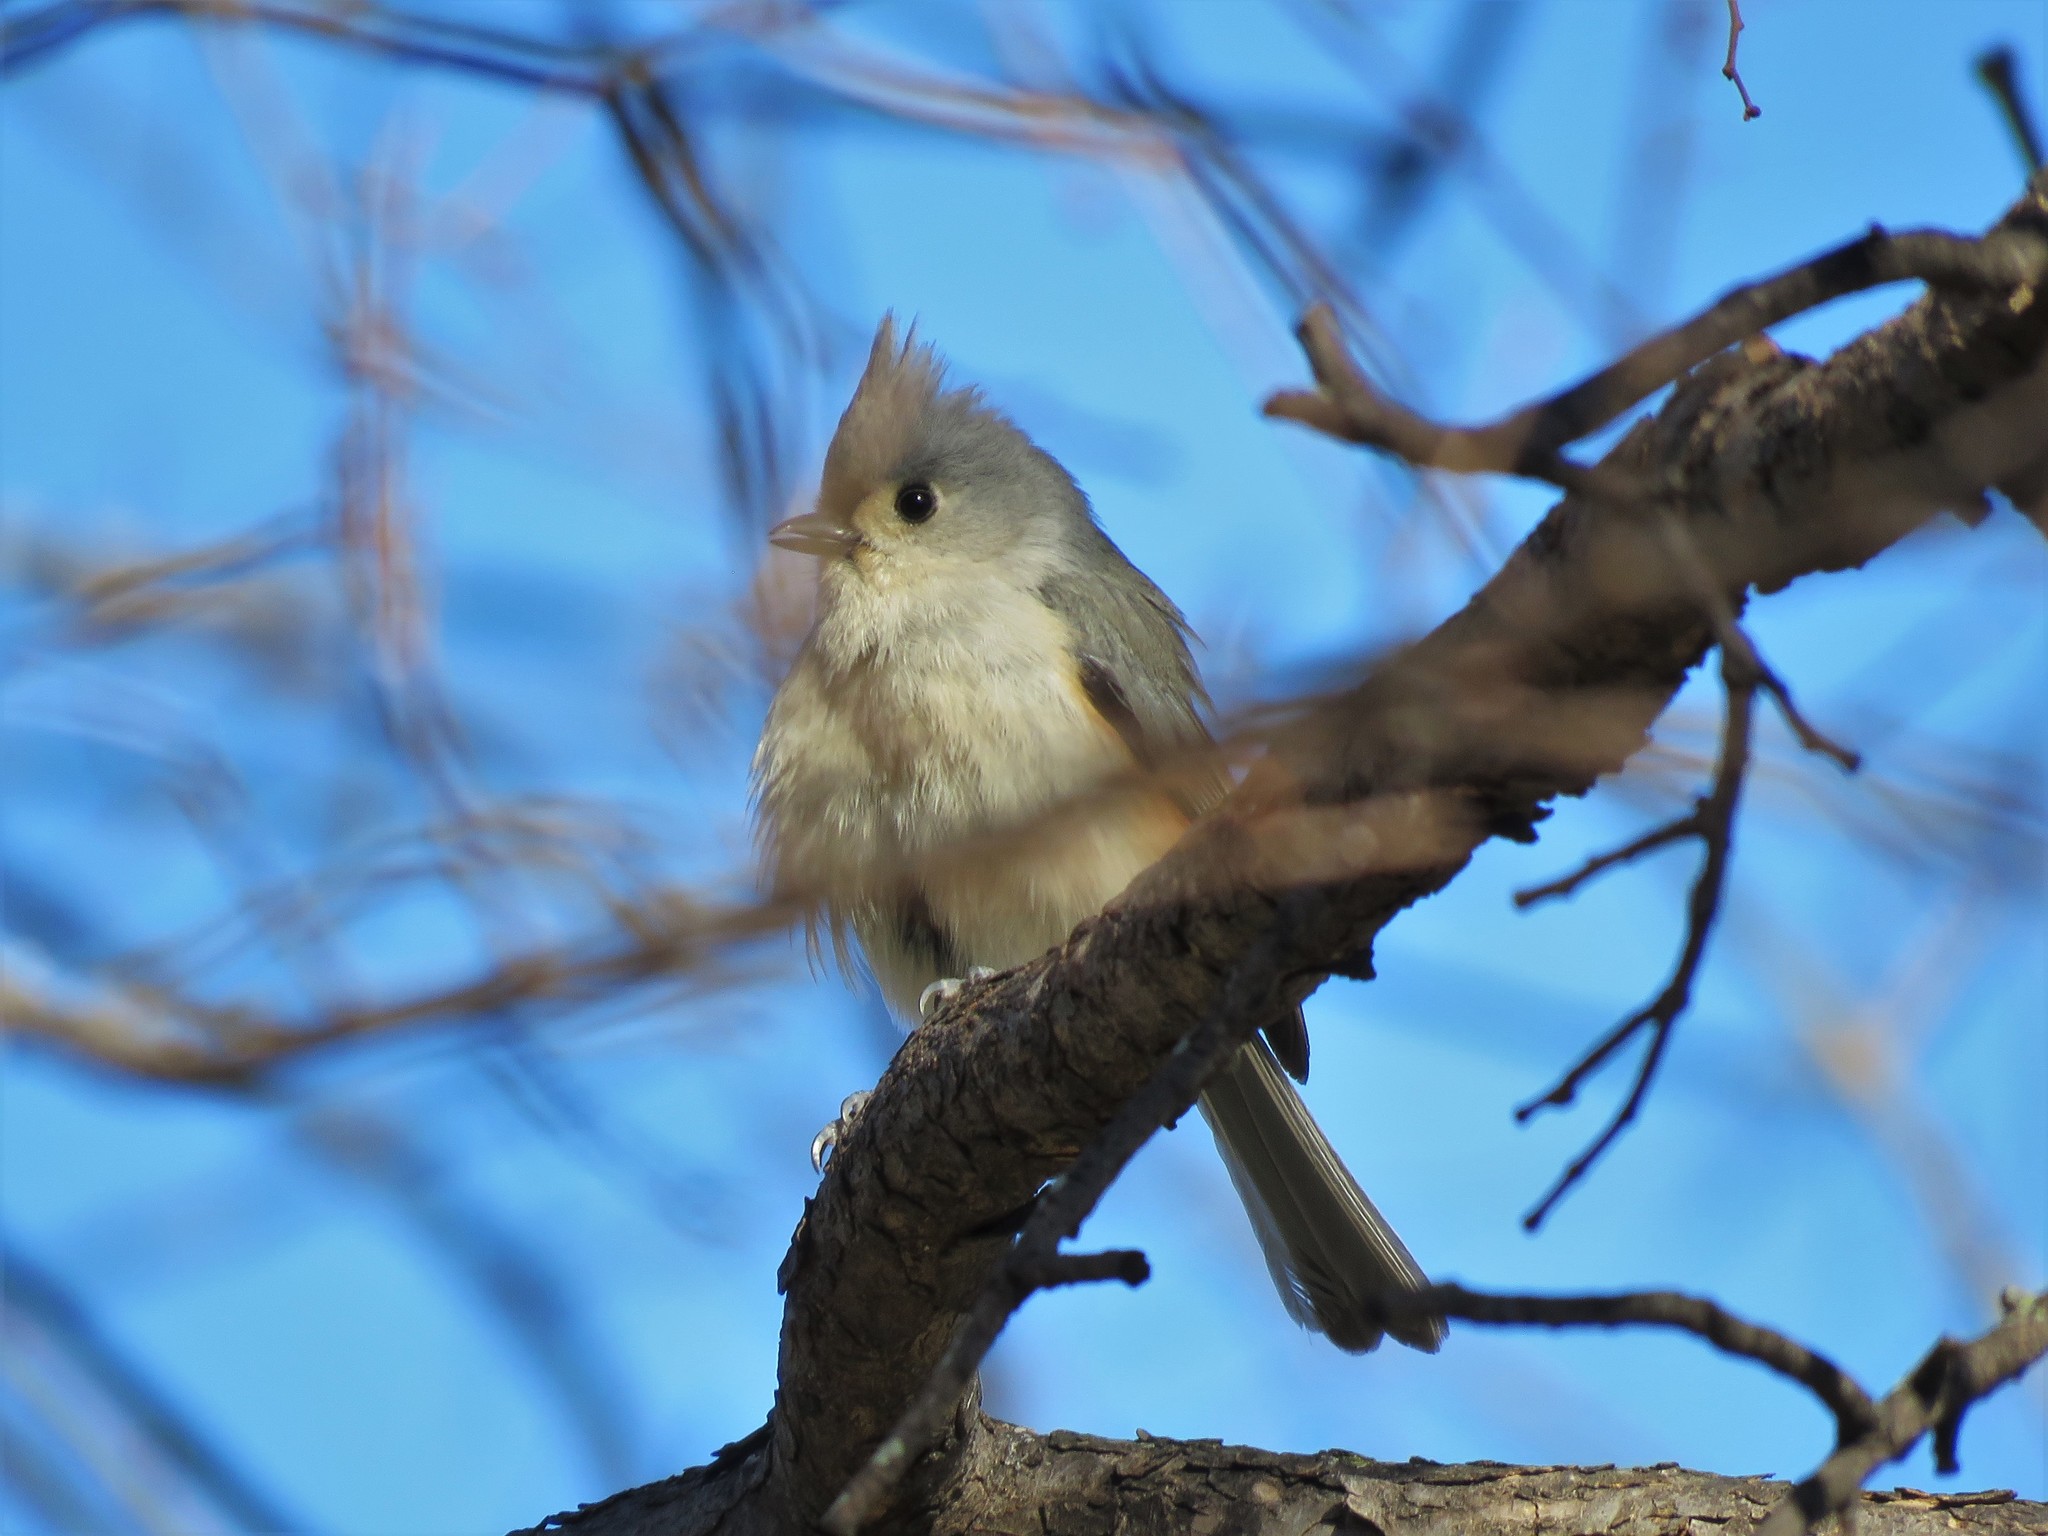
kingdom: Animalia
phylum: Chordata
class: Aves
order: Passeriformes
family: Paridae
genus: Baeolophus
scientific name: Baeolophus bicolor
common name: Tufted titmouse
